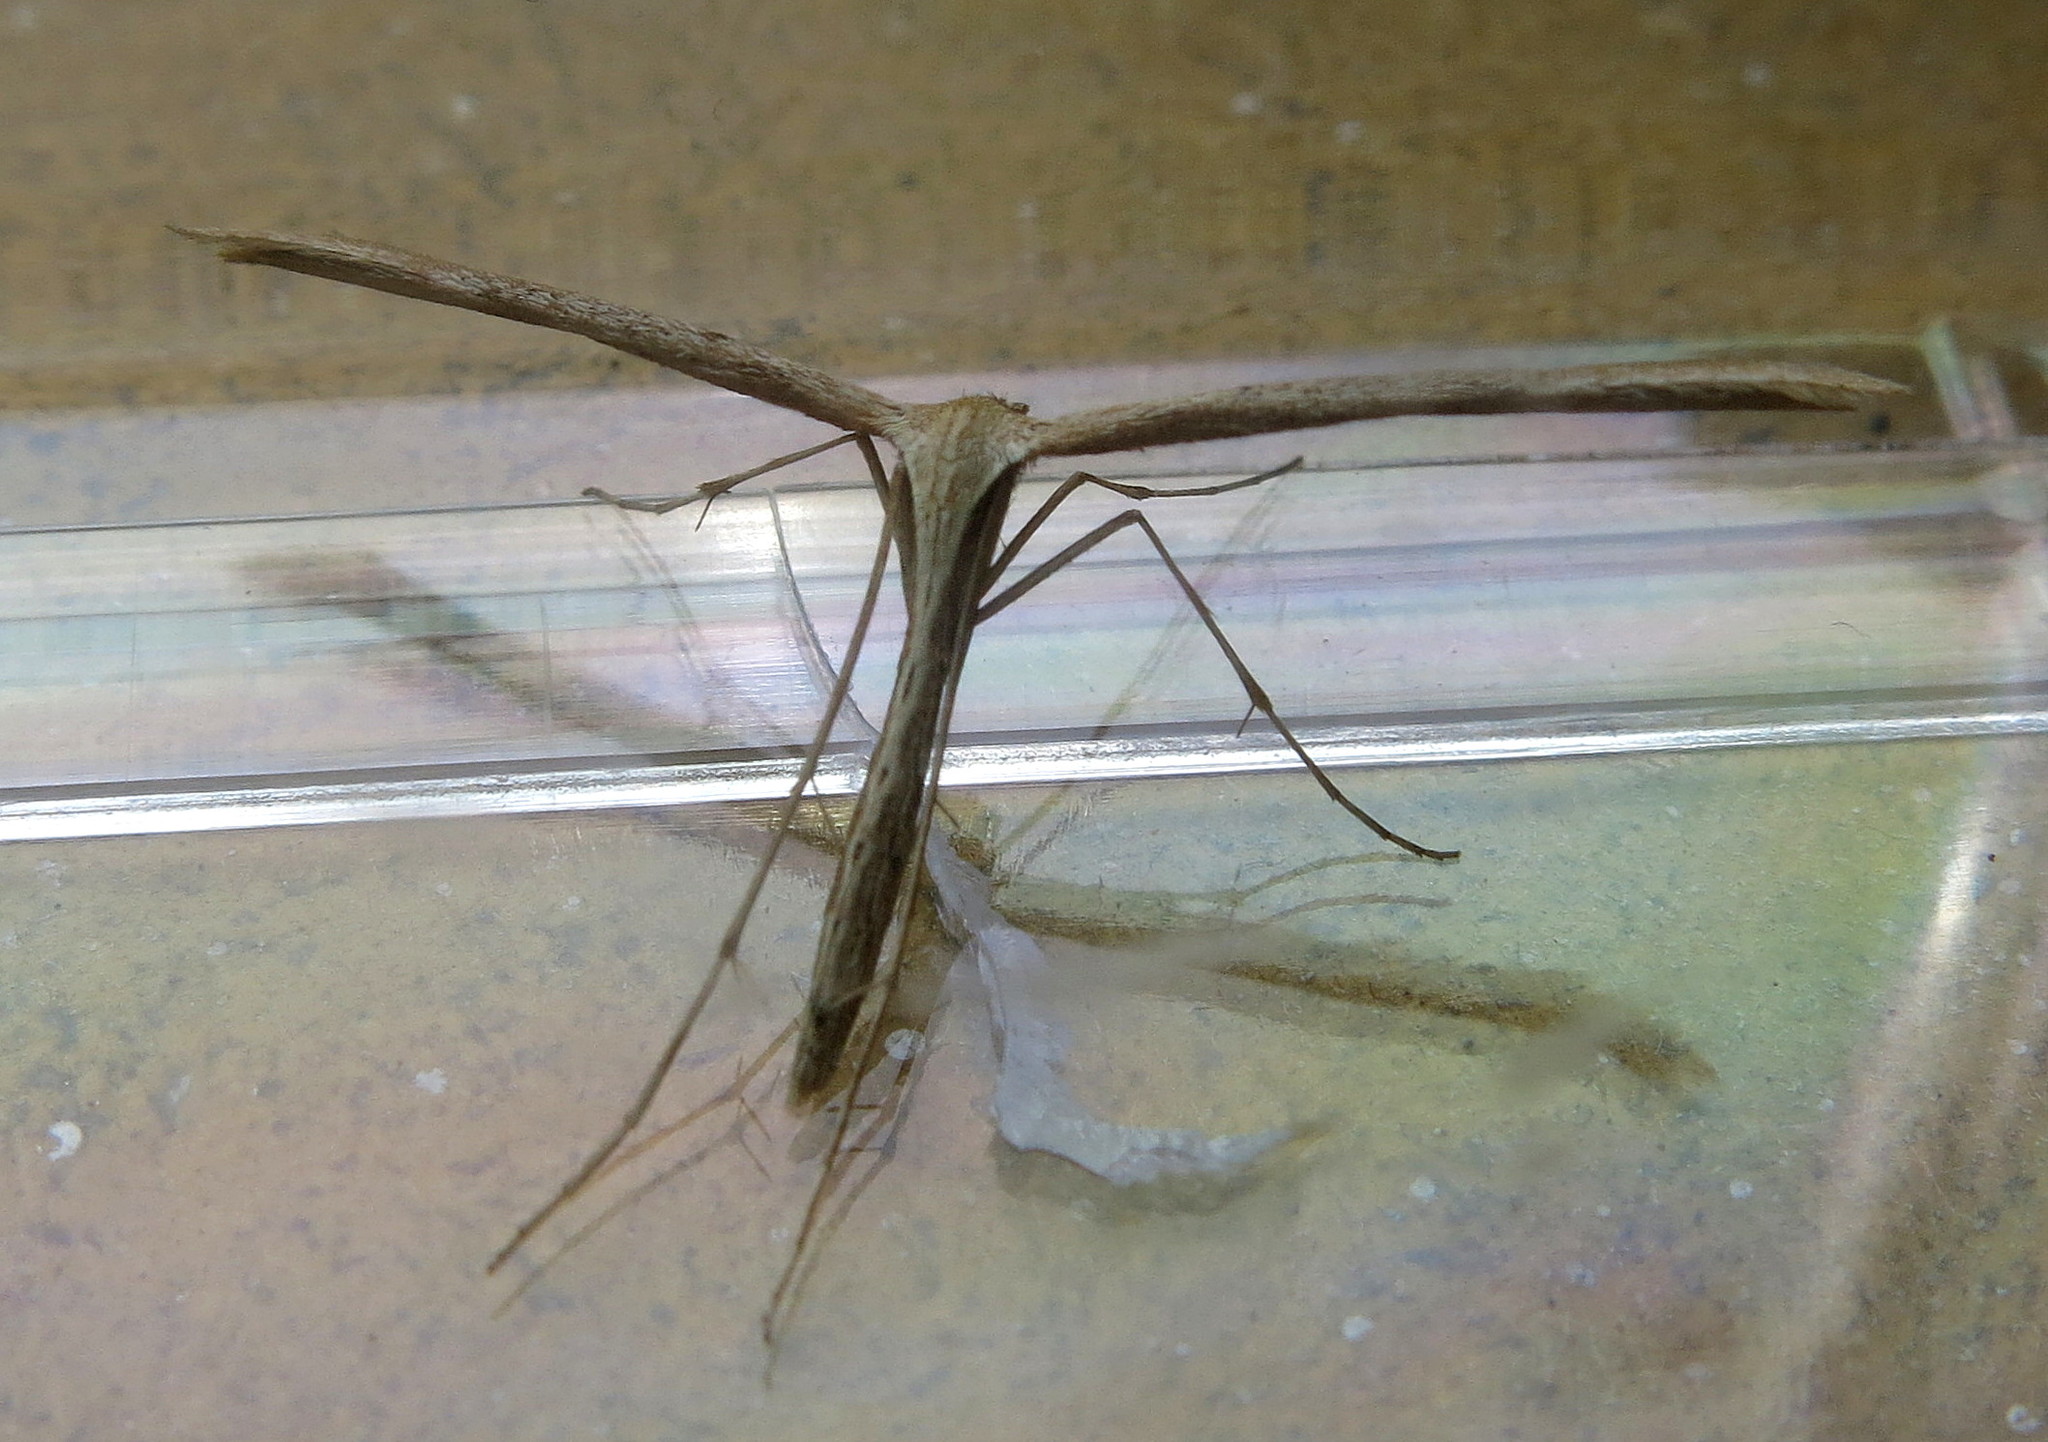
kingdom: Animalia
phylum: Arthropoda
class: Insecta
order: Lepidoptera
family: Pterophoridae
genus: Emmelina
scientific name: Emmelina monodactyla
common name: Common plume
